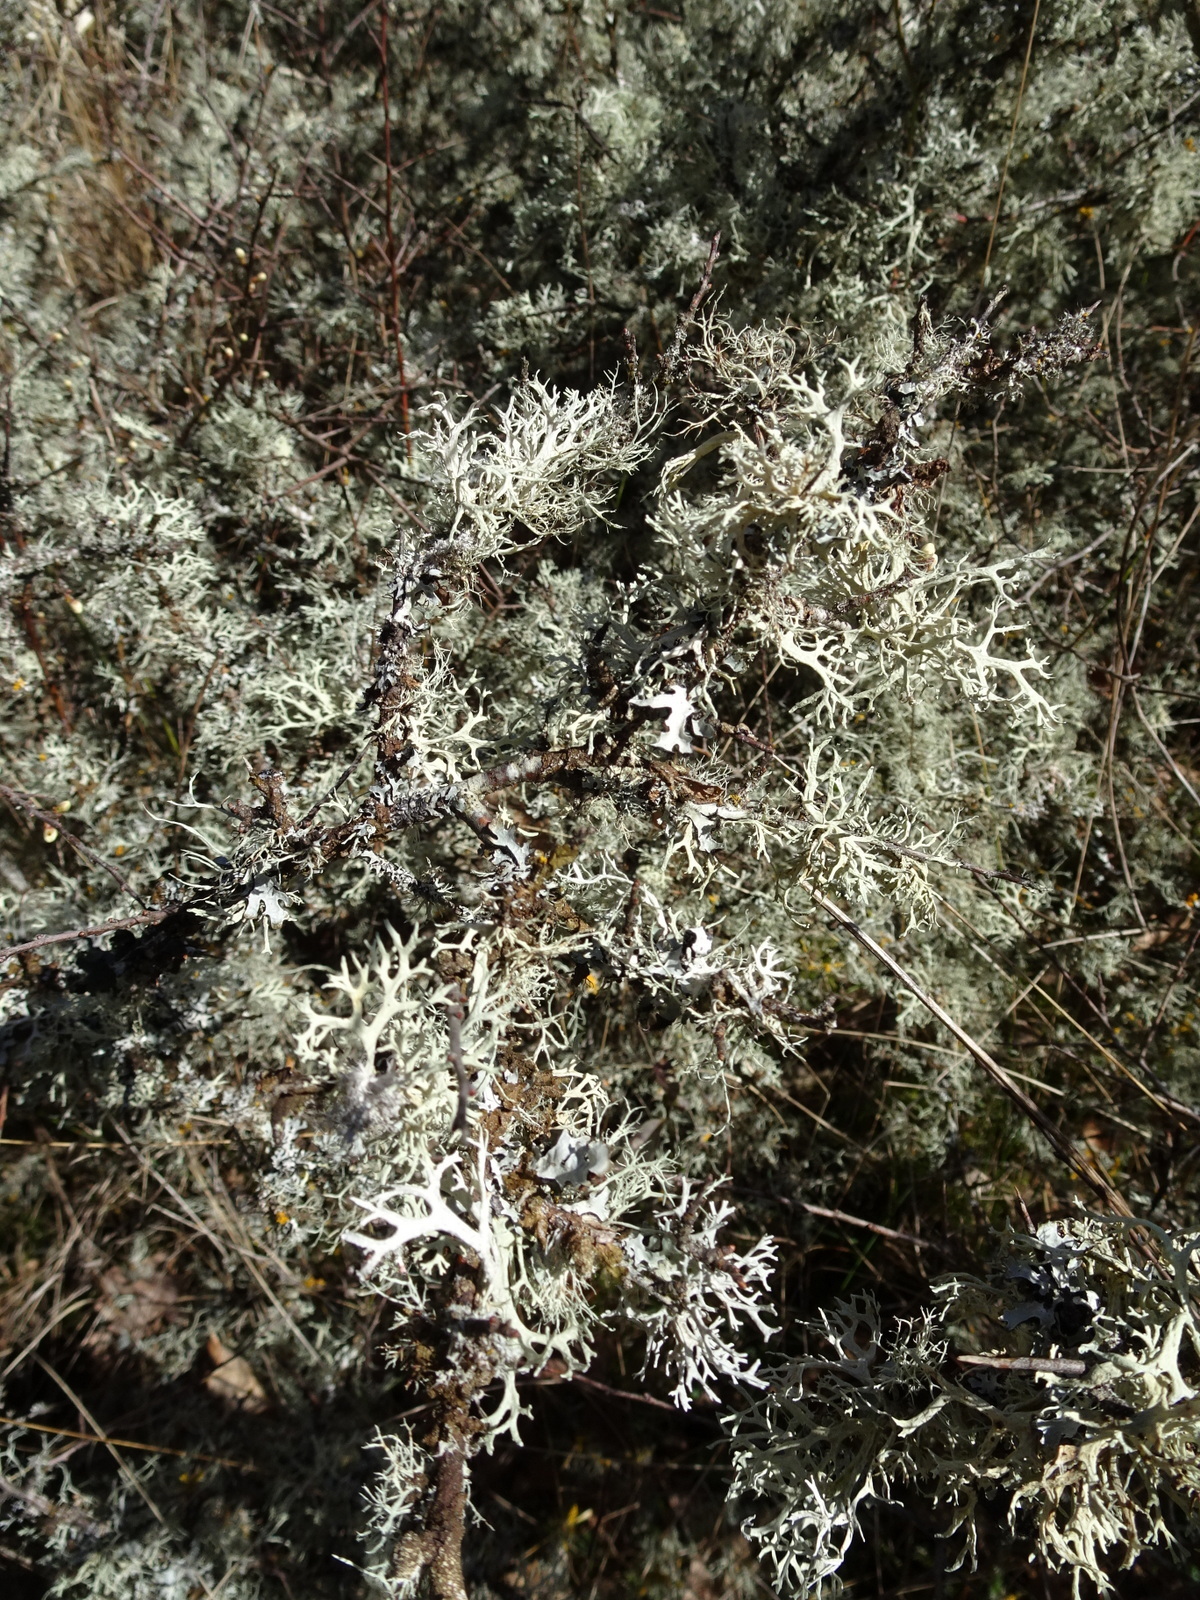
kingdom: Fungi
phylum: Ascomycota
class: Lecanoromycetes
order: Lecanorales
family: Parmeliaceae
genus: Evernia
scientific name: Evernia prunastri
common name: Oak moss
